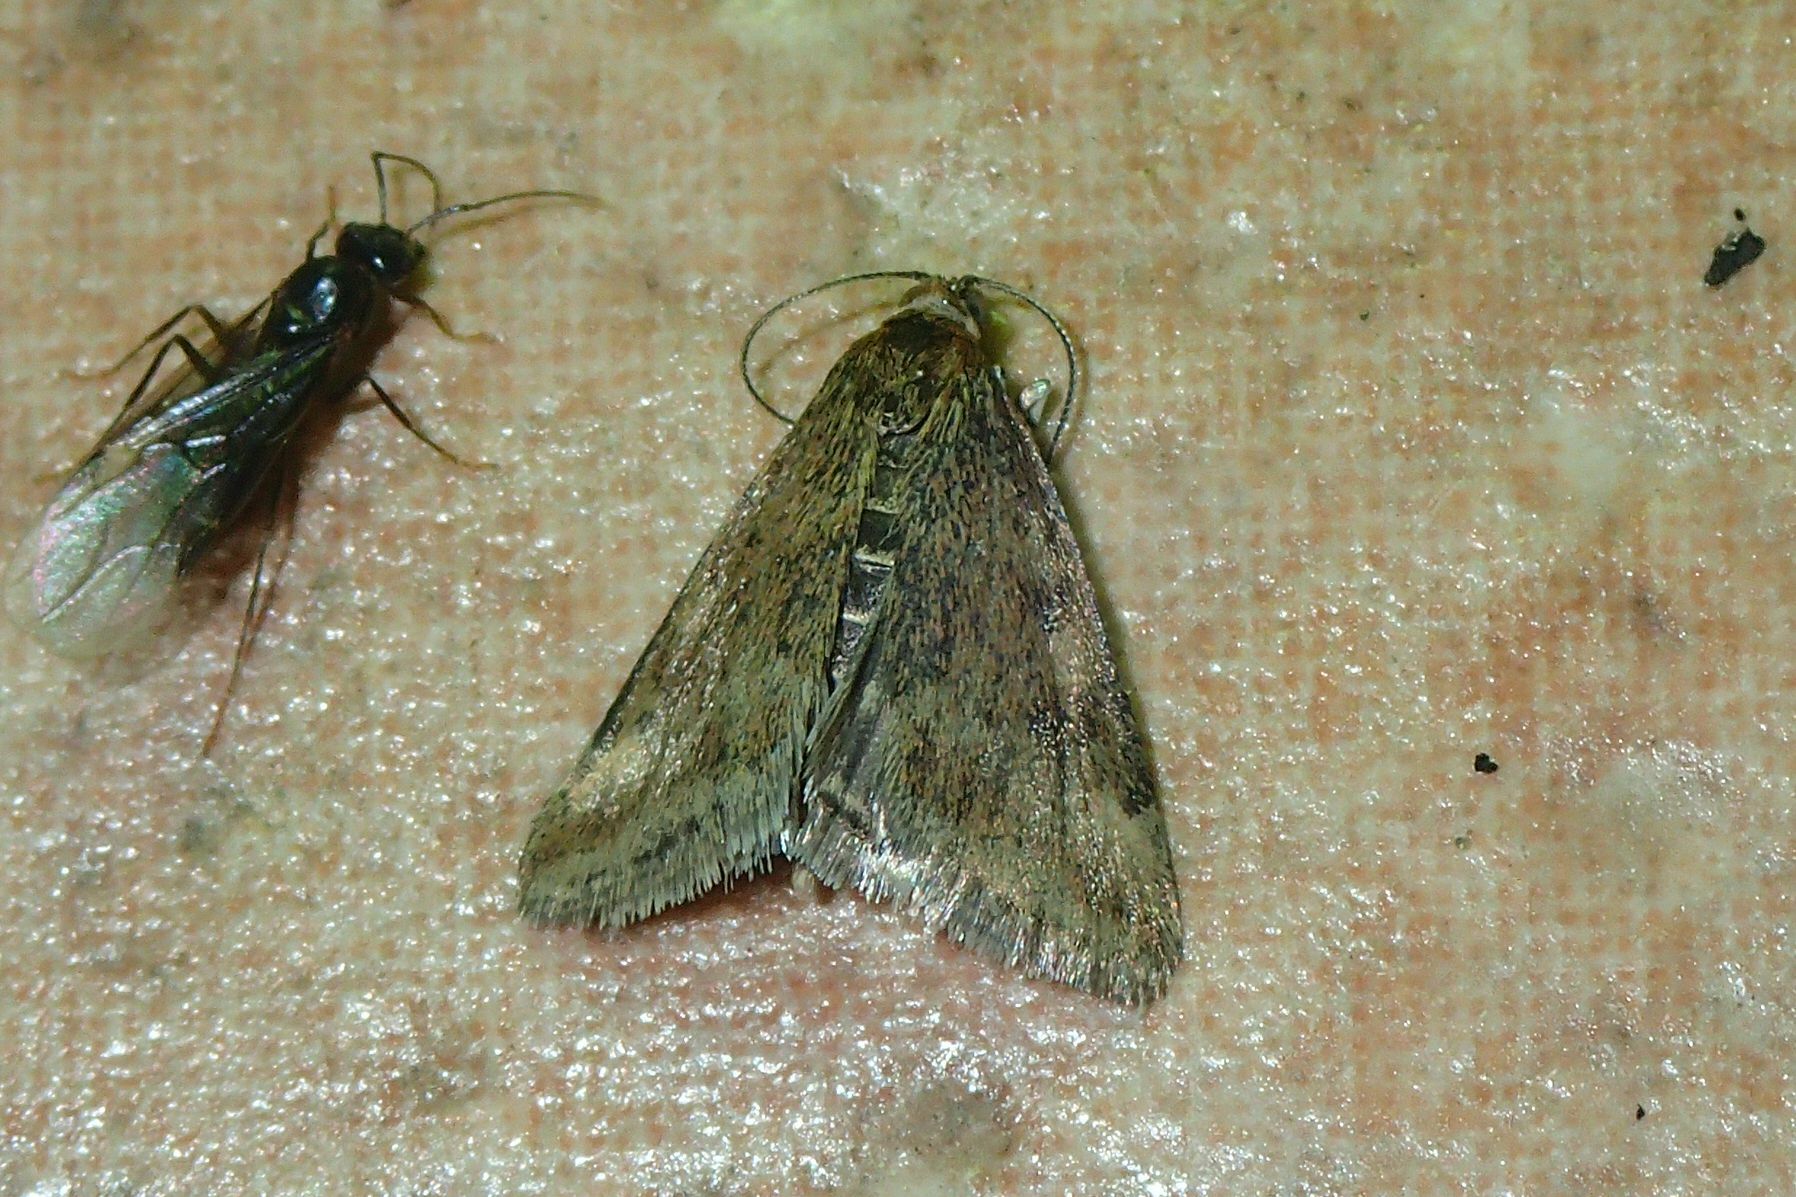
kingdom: Animalia
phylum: Arthropoda
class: Insecta
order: Lepidoptera
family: Crambidae
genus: Pyrausta
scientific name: Pyrausta despicata
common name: Straw-barred pearl
